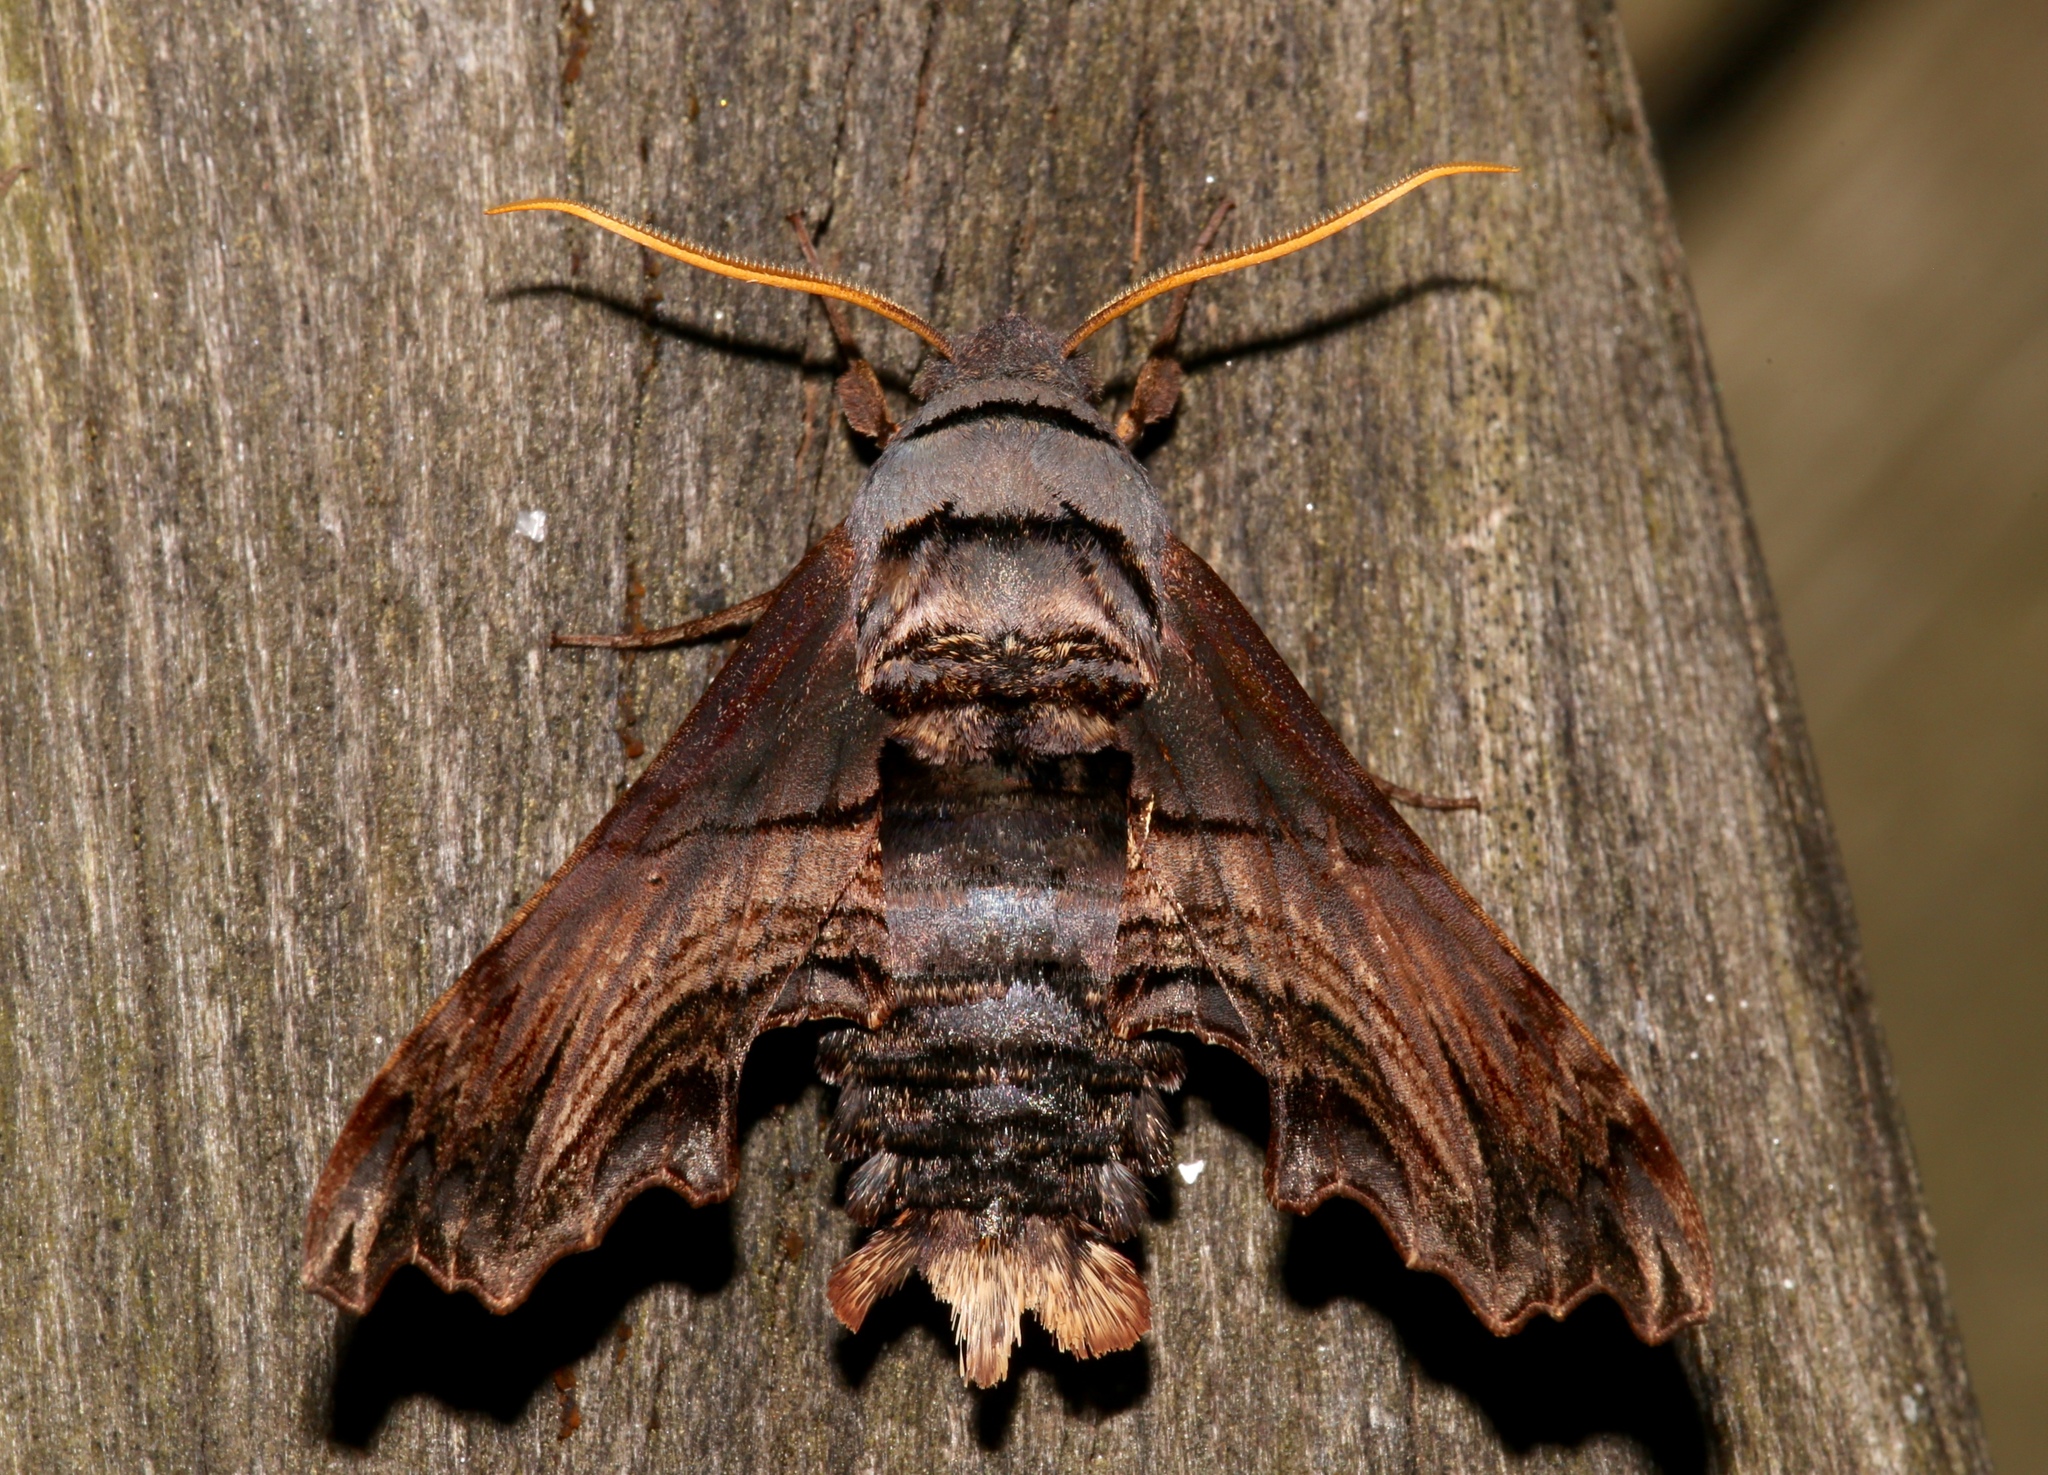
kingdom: Animalia
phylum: Arthropoda
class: Insecta
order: Lepidoptera
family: Sphingidae
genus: Sphecodina
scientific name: Sphecodina abbottii
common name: Abbott's sphinx
